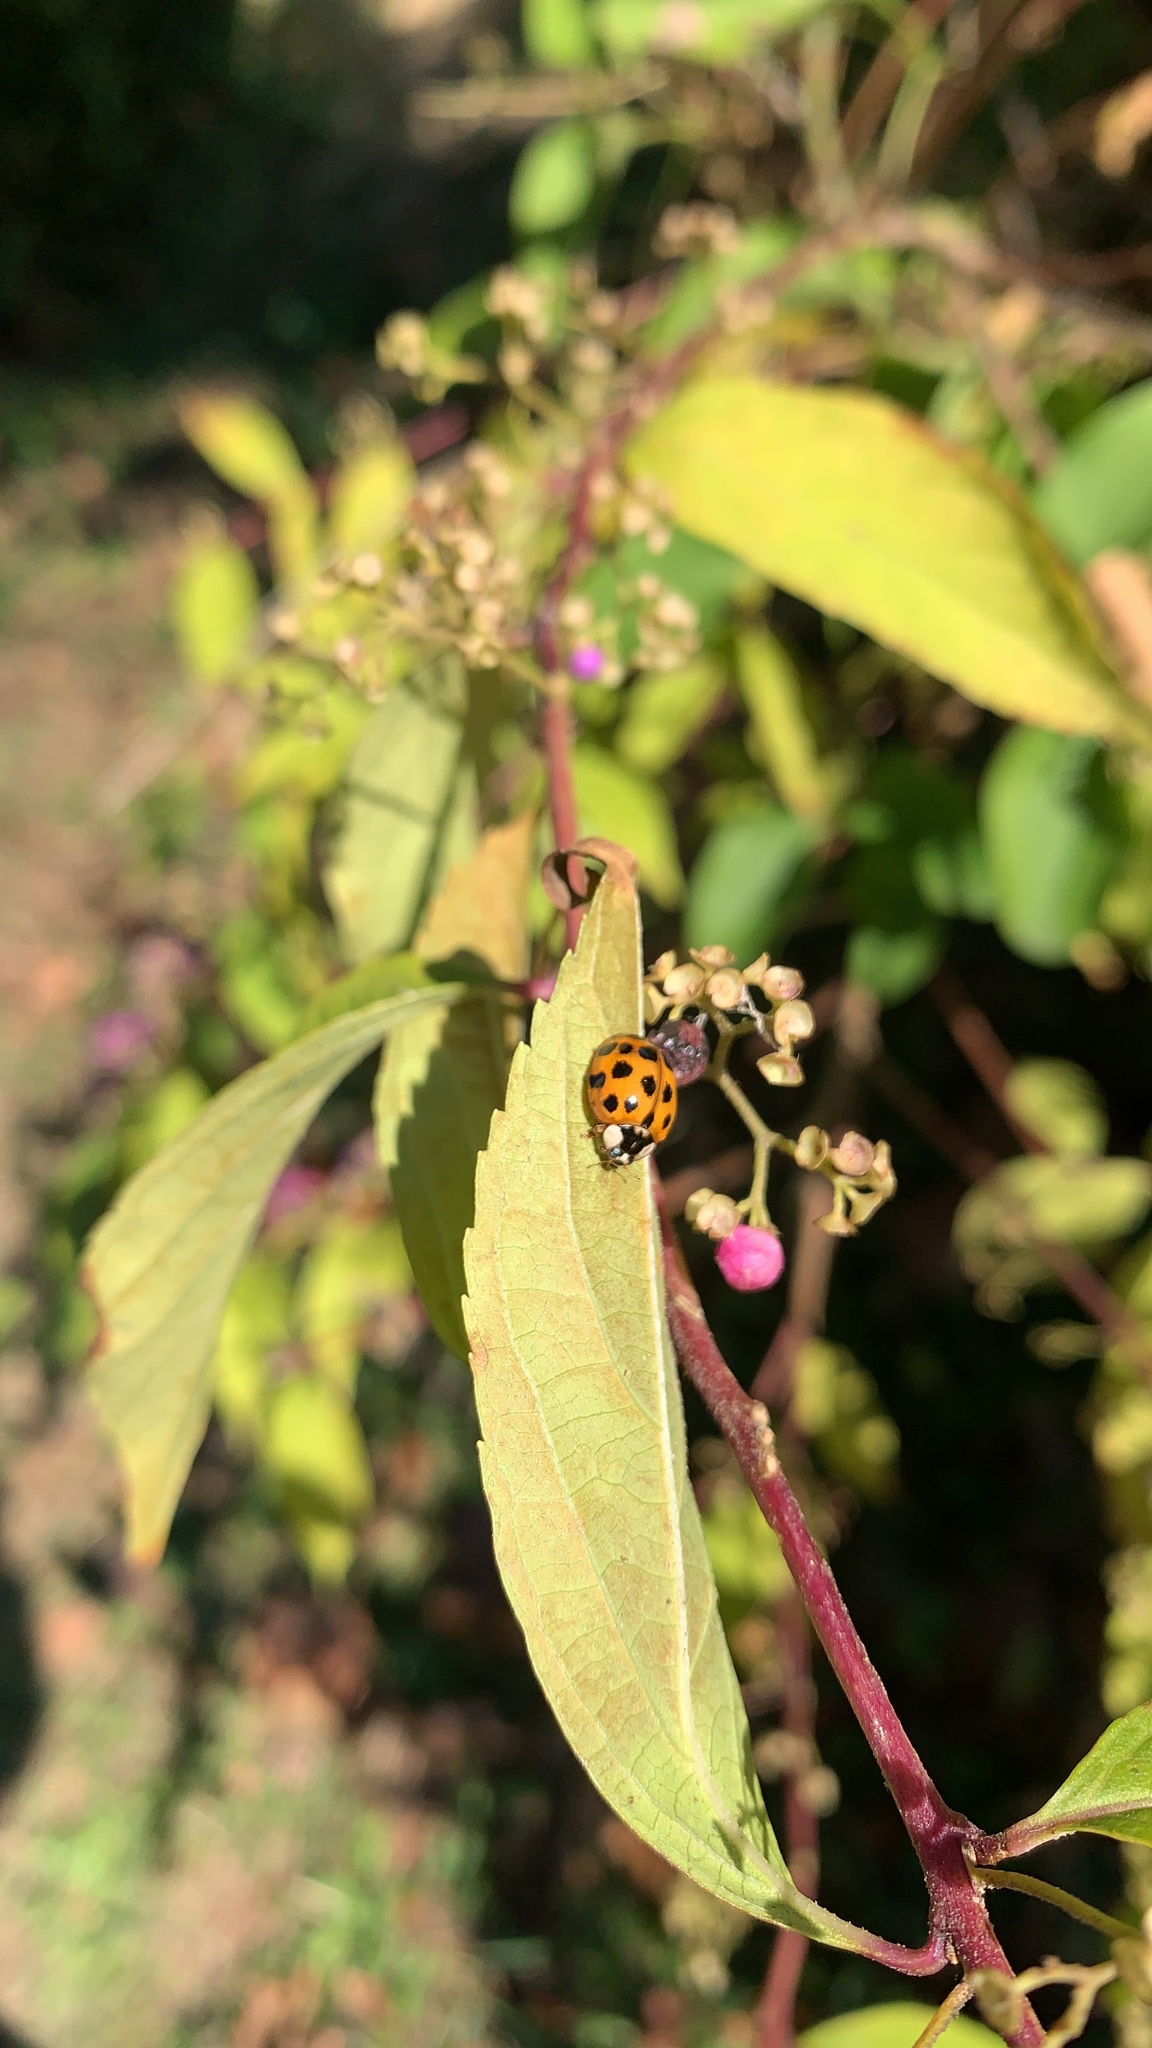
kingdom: Animalia
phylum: Arthropoda
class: Insecta
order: Coleoptera
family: Coccinellidae
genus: Harmonia
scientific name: Harmonia axyridis
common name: Harlequin ladybird
